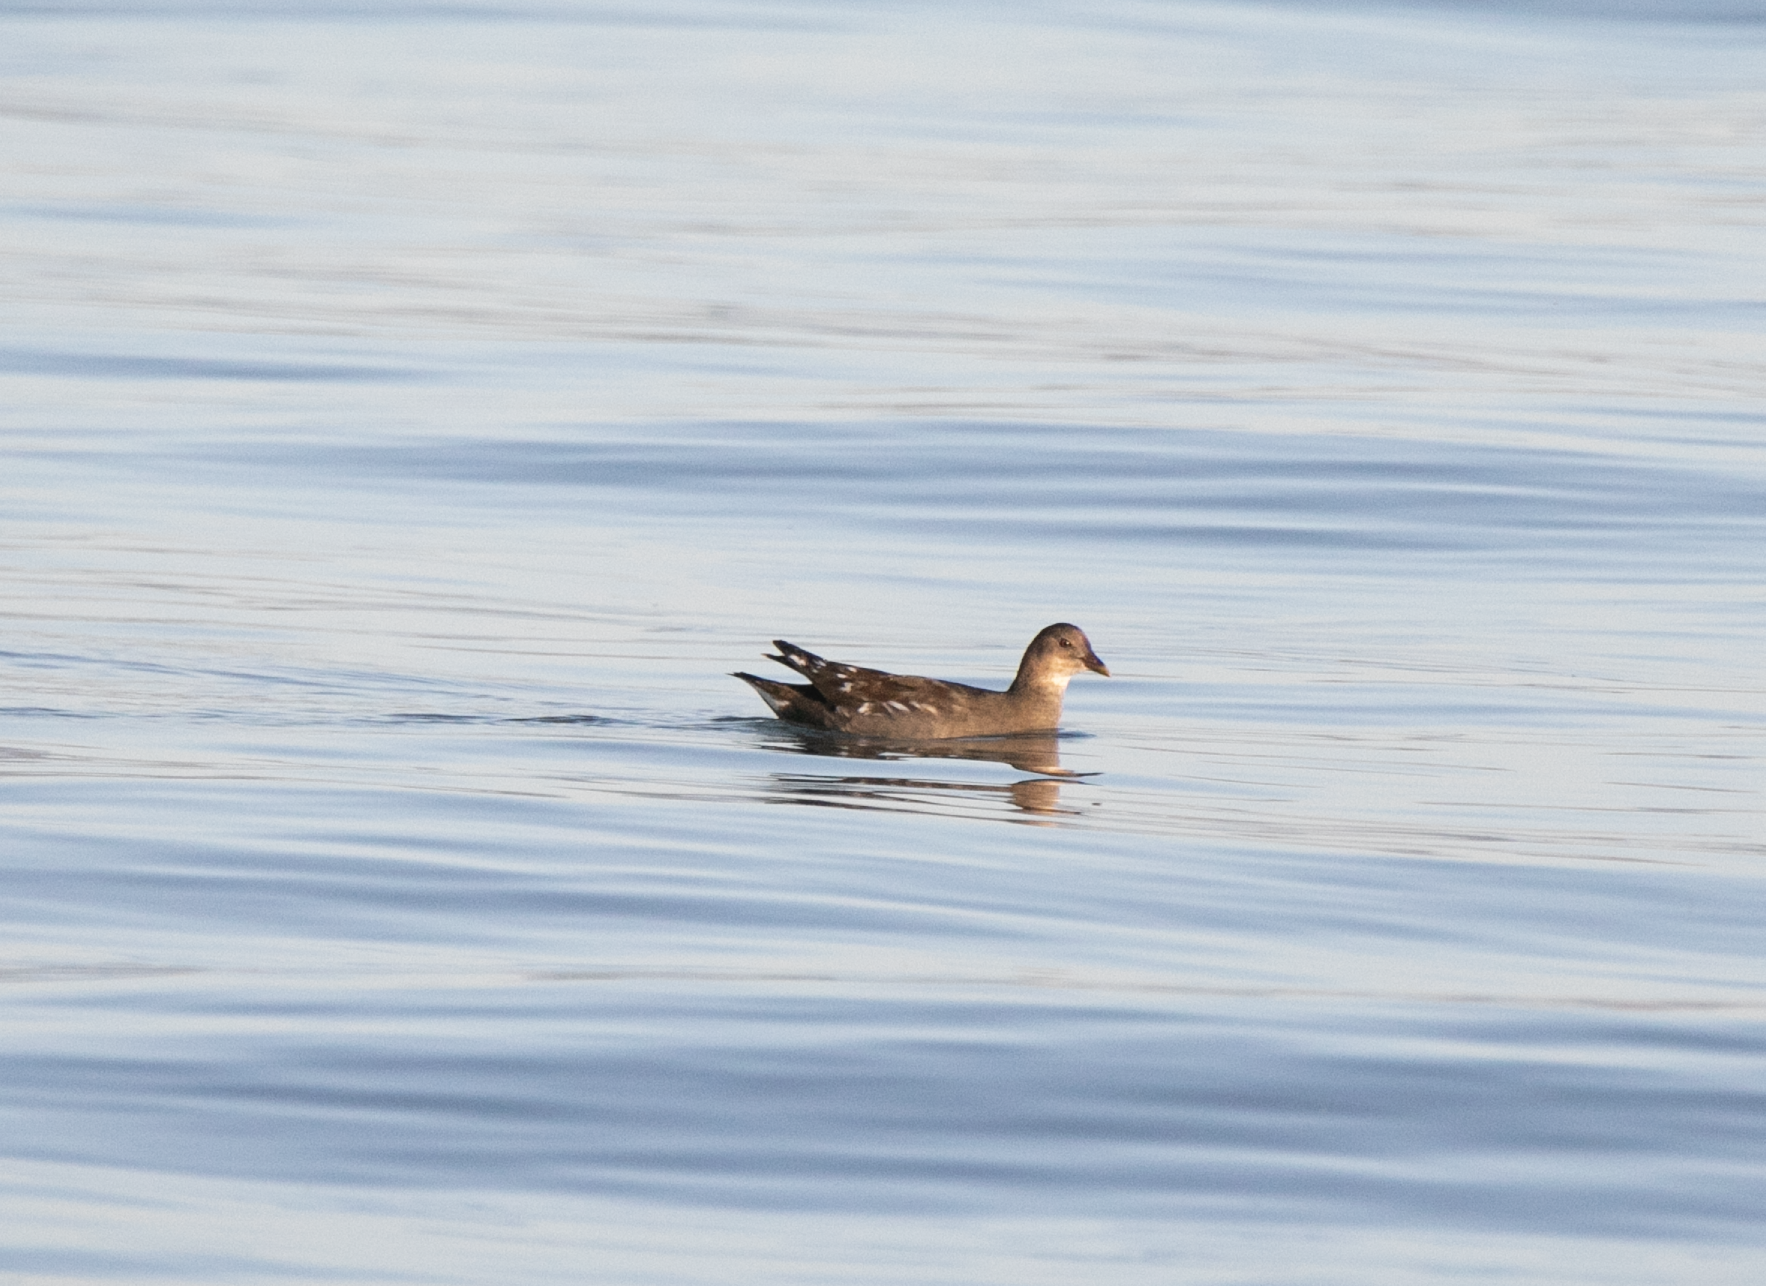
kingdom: Animalia
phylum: Chordata
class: Aves
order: Gruiformes
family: Rallidae
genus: Gallinula
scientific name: Gallinula chloropus
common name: Common moorhen
